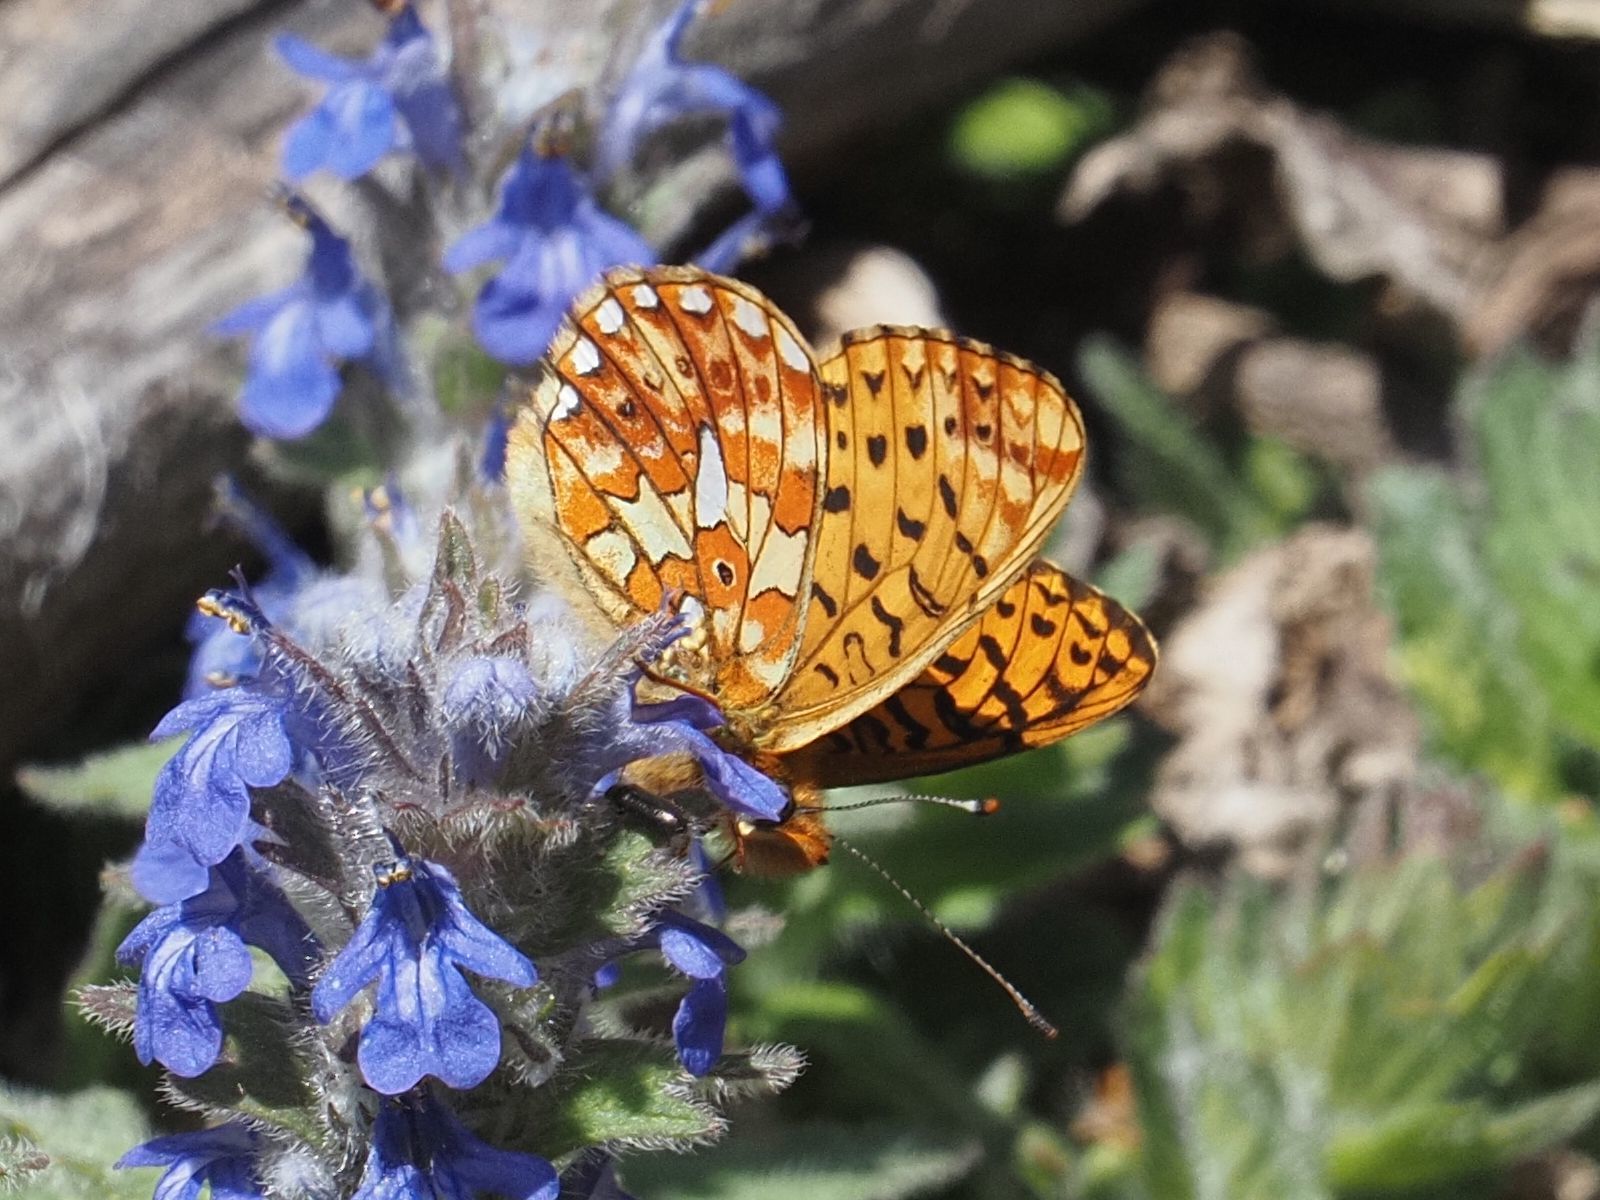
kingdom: Animalia
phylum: Arthropoda
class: Insecta
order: Lepidoptera
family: Nymphalidae
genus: Clossiana
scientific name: Clossiana euphrosyne
